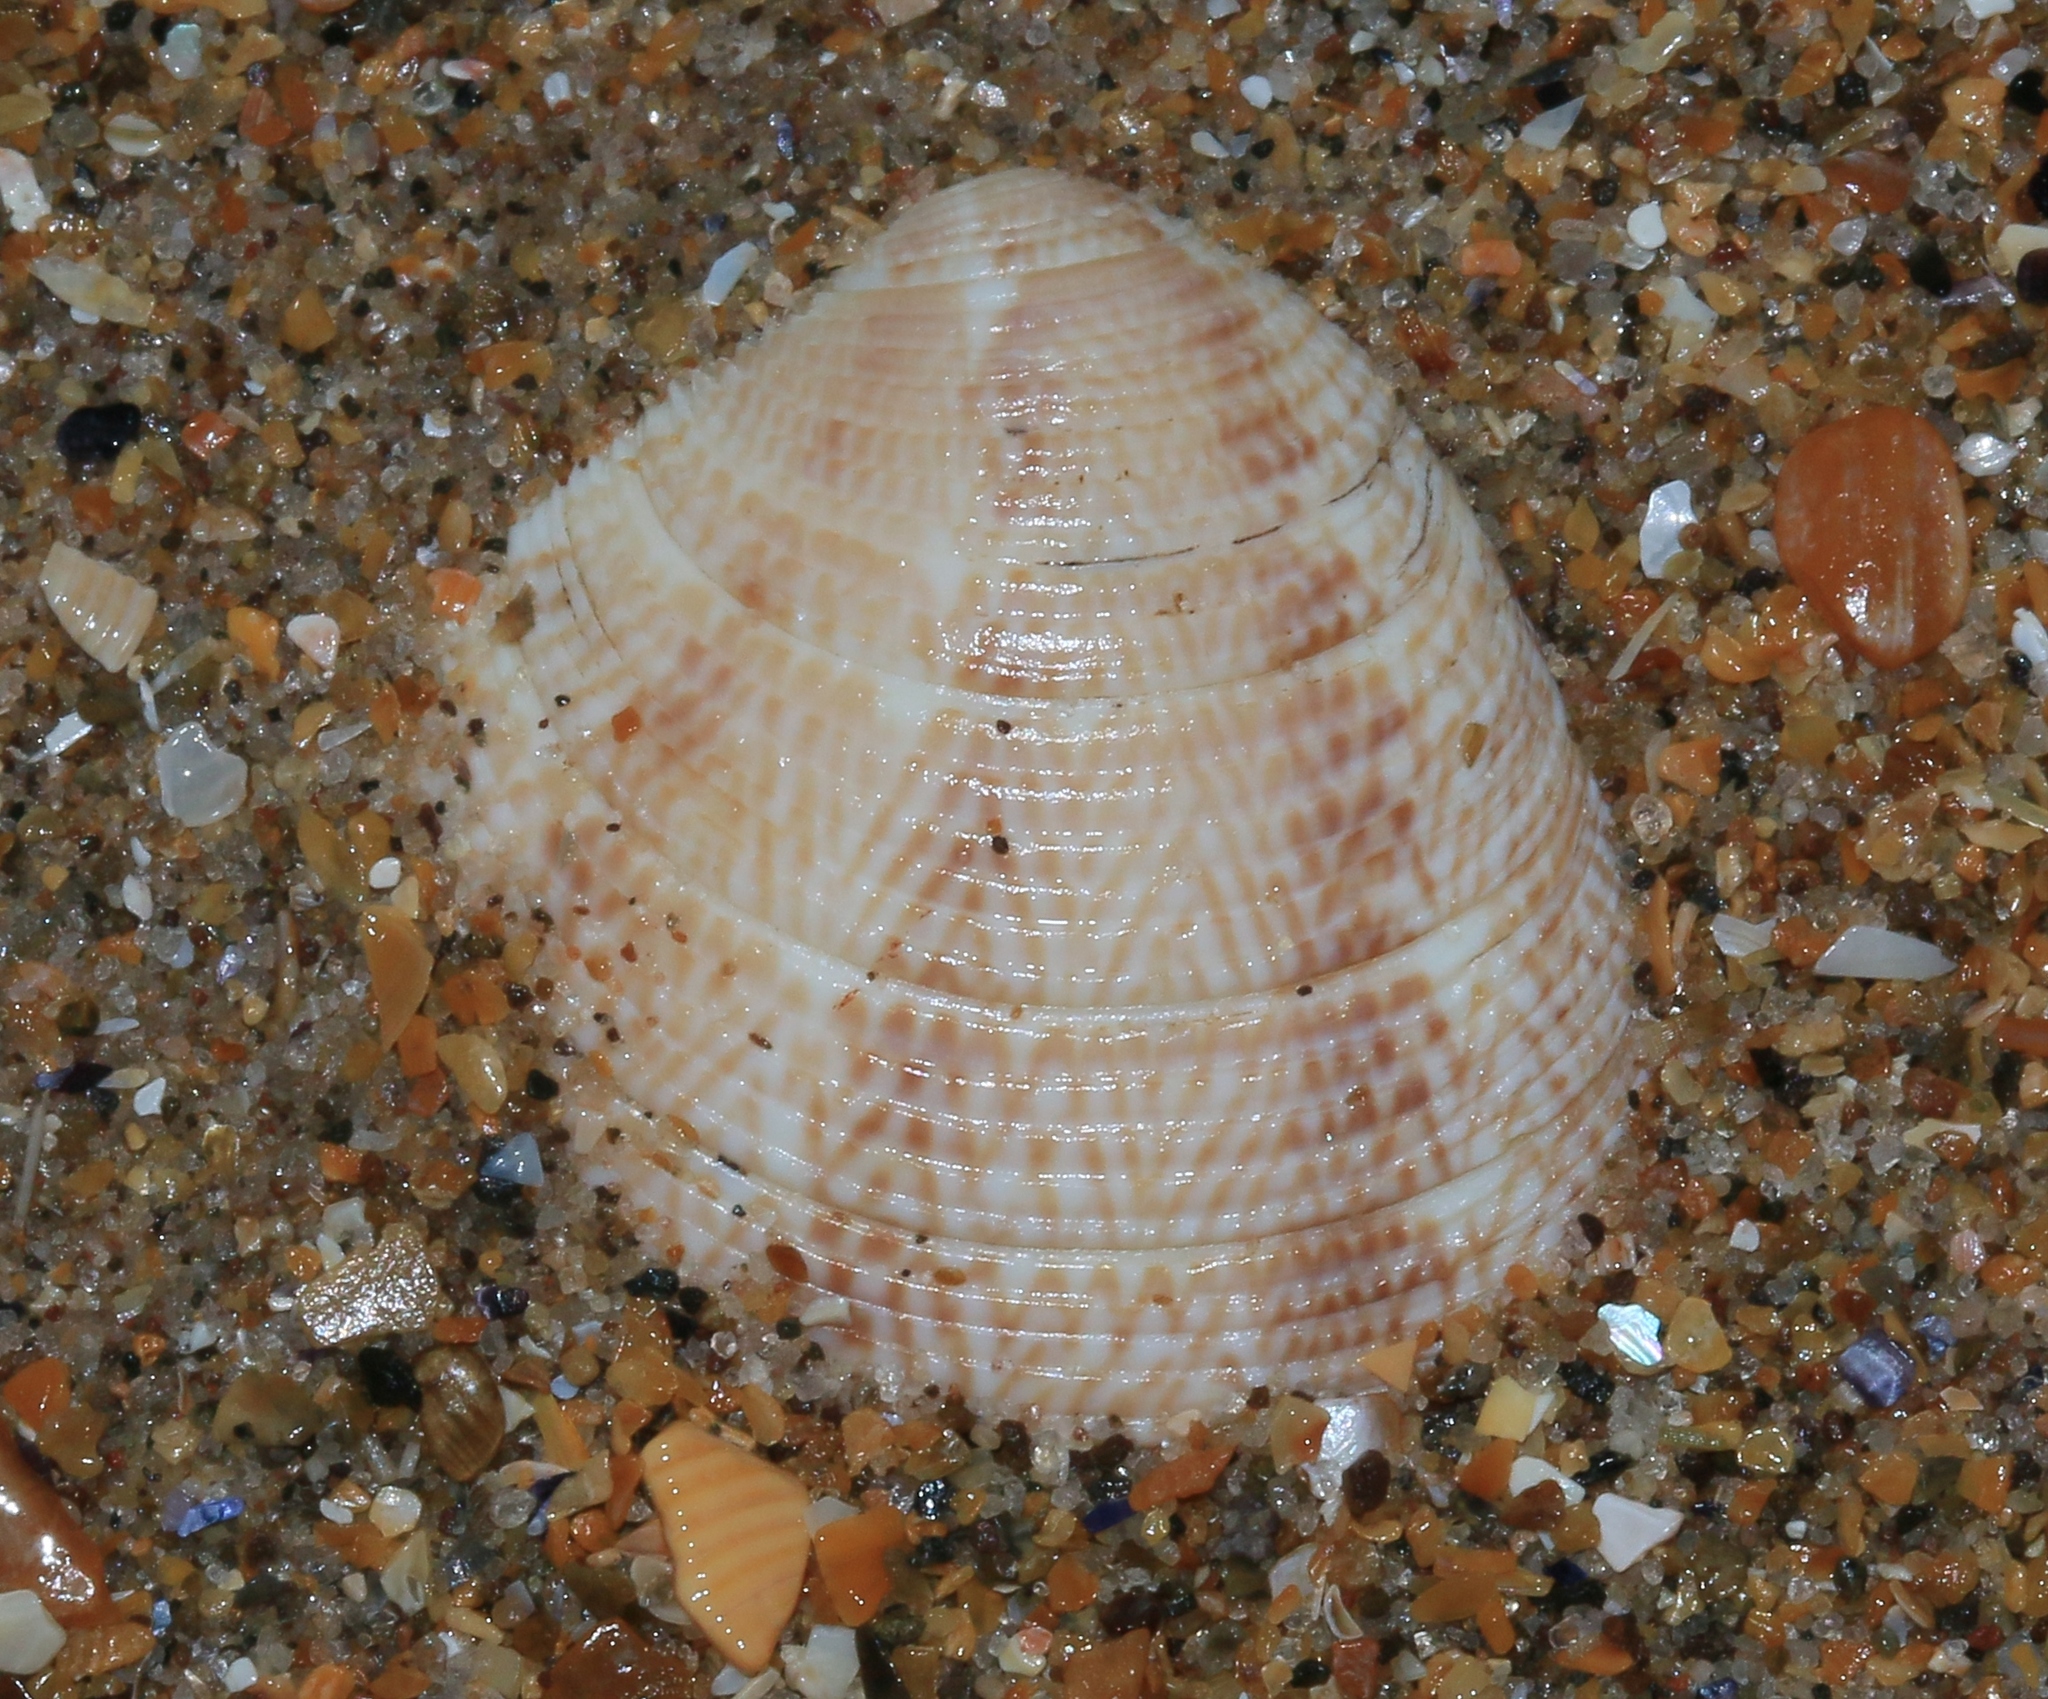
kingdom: Animalia
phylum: Mollusca
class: Bivalvia
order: Venerida
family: Veneridae
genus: Chamelea
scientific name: Chamelea striatula
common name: Striped venus
